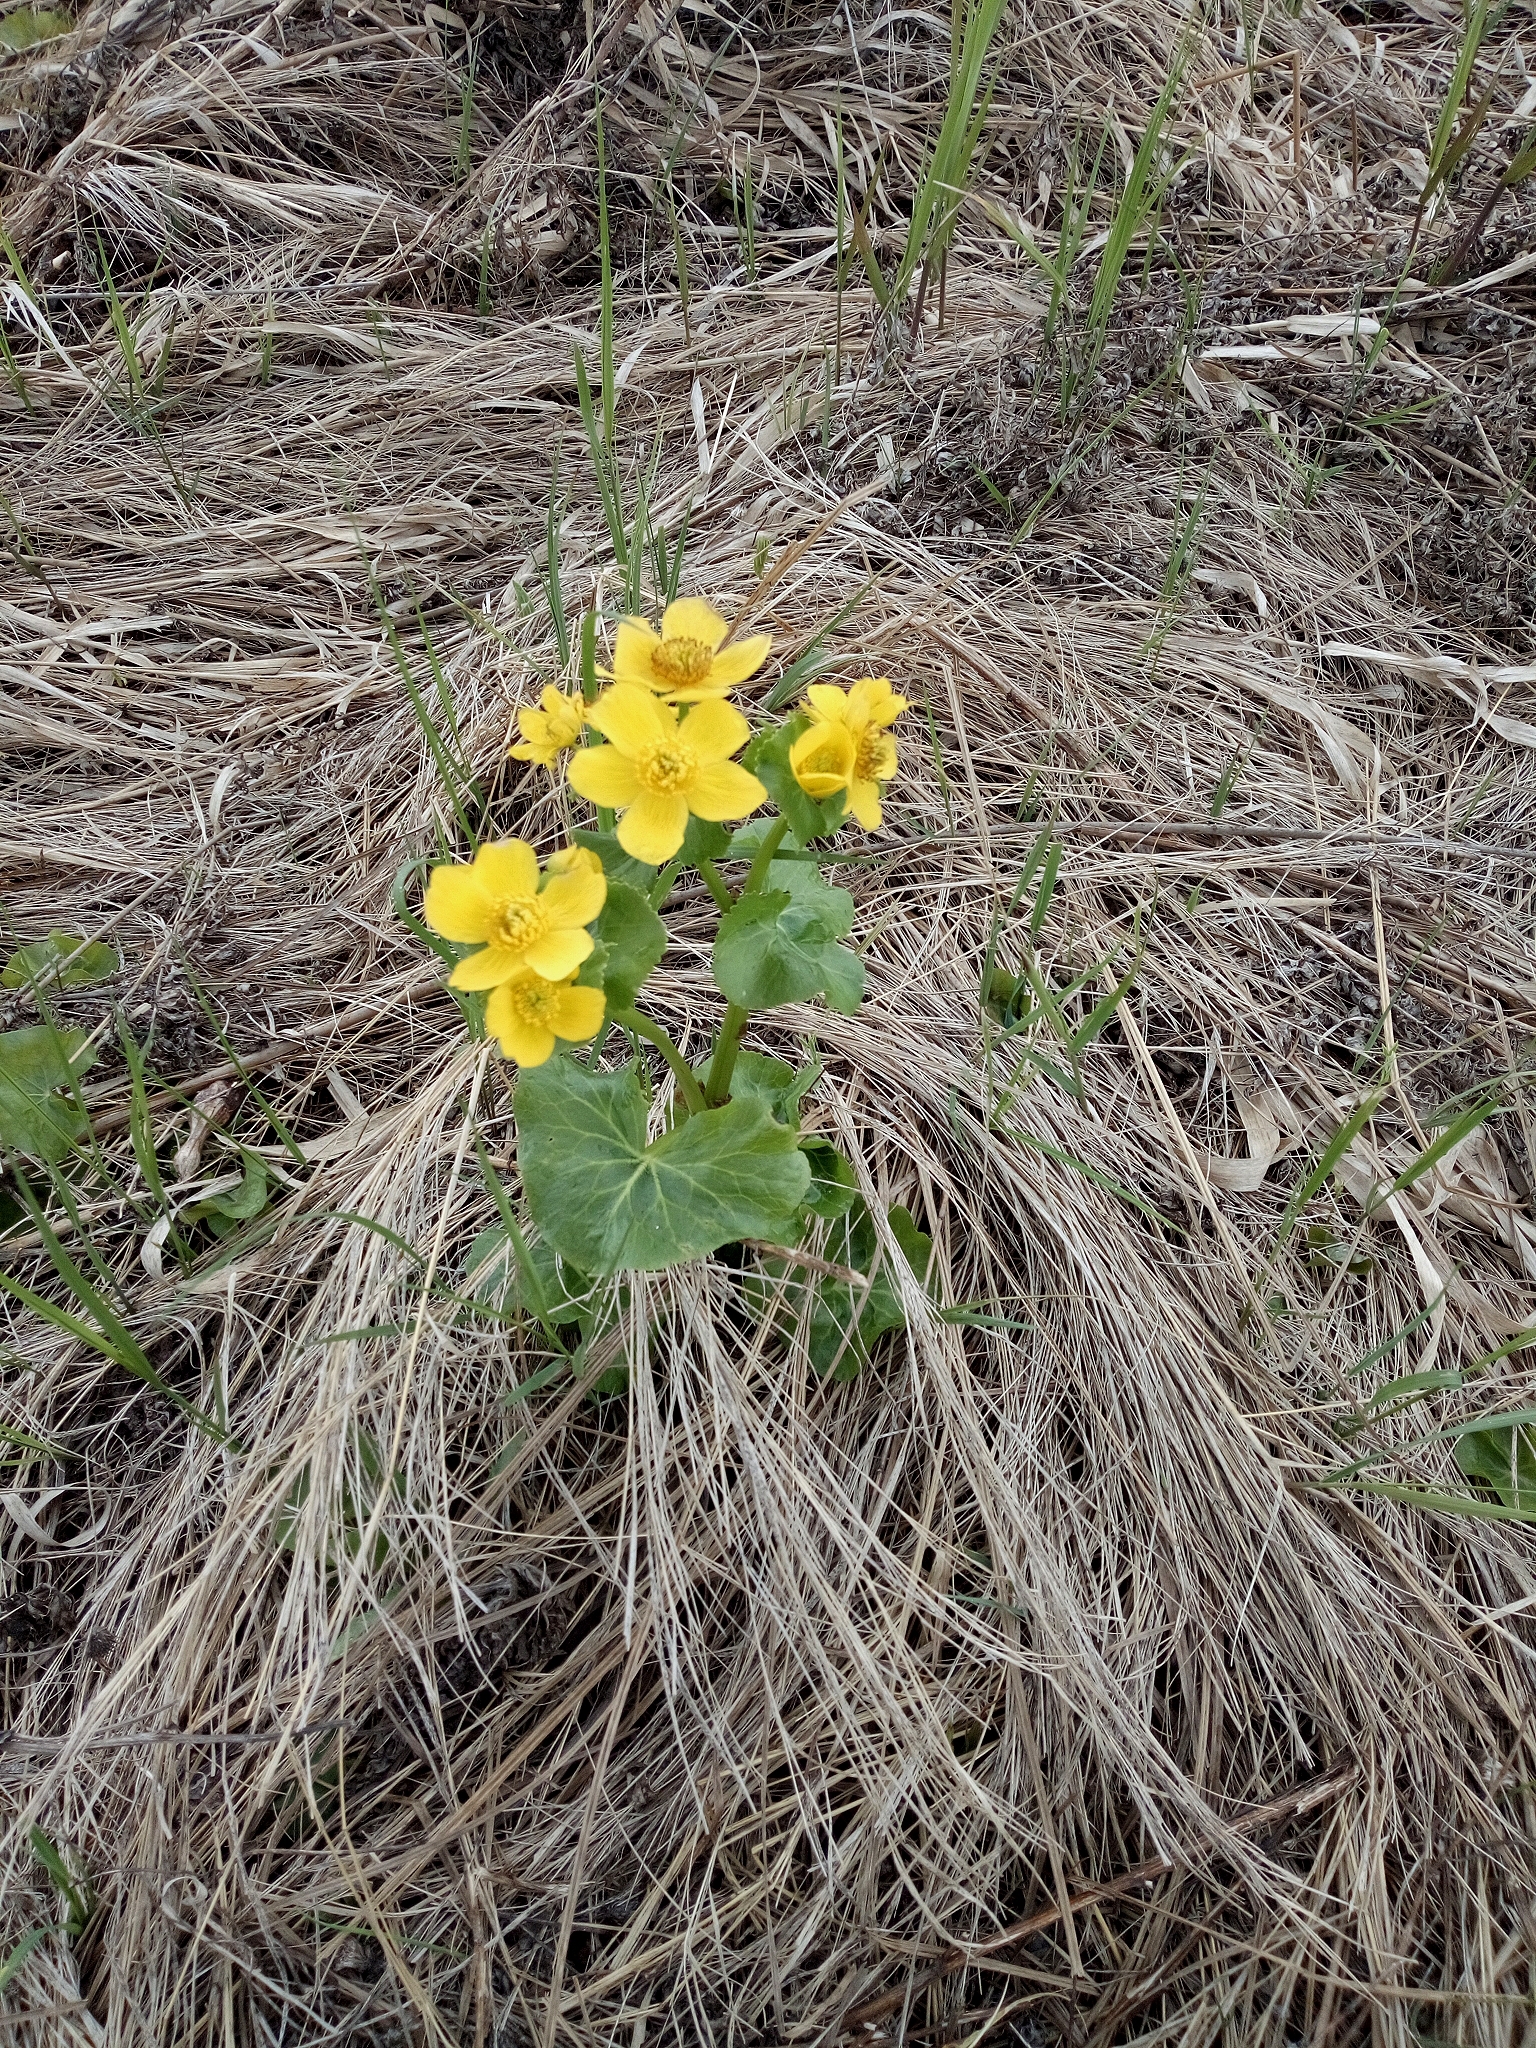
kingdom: Plantae
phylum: Tracheophyta
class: Magnoliopsida
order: Ranunculales
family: Ranunculaceae
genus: Caltha
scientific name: Caltha palustris
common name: Marsh marigold
